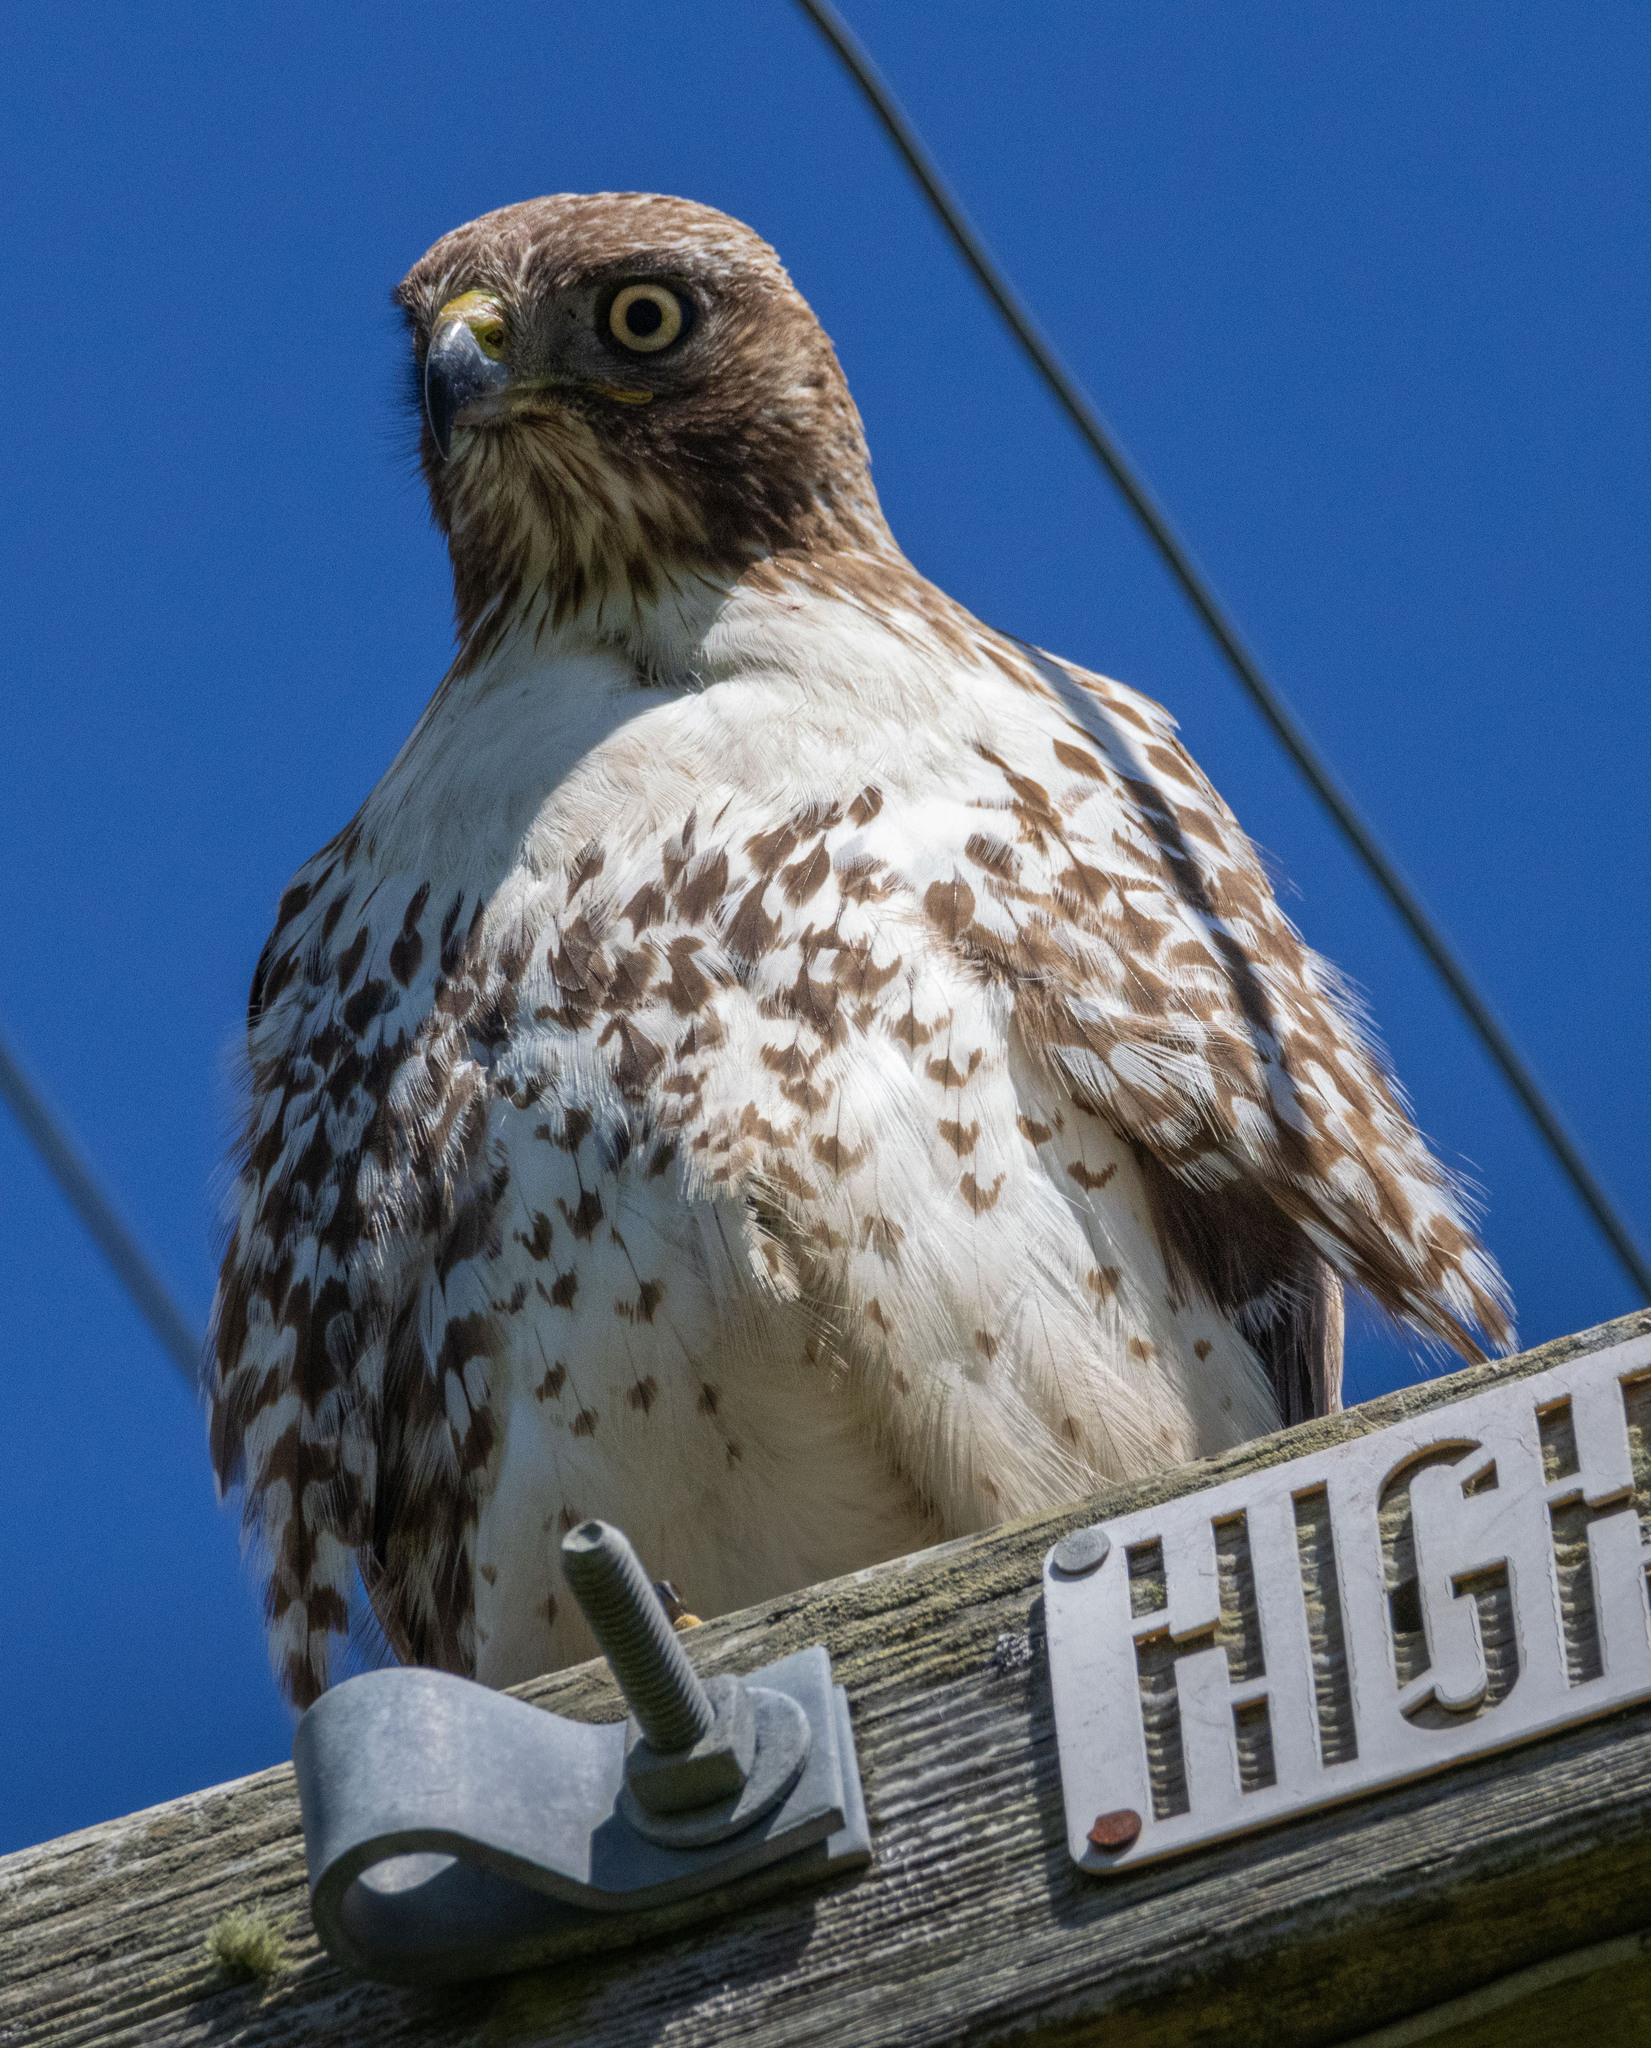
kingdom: Animalia
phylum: Chordata
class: Aves
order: Accipitriformes
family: Accipitridae
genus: Buteo
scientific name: Buteo jamaicensis
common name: Red-tailed hawk
